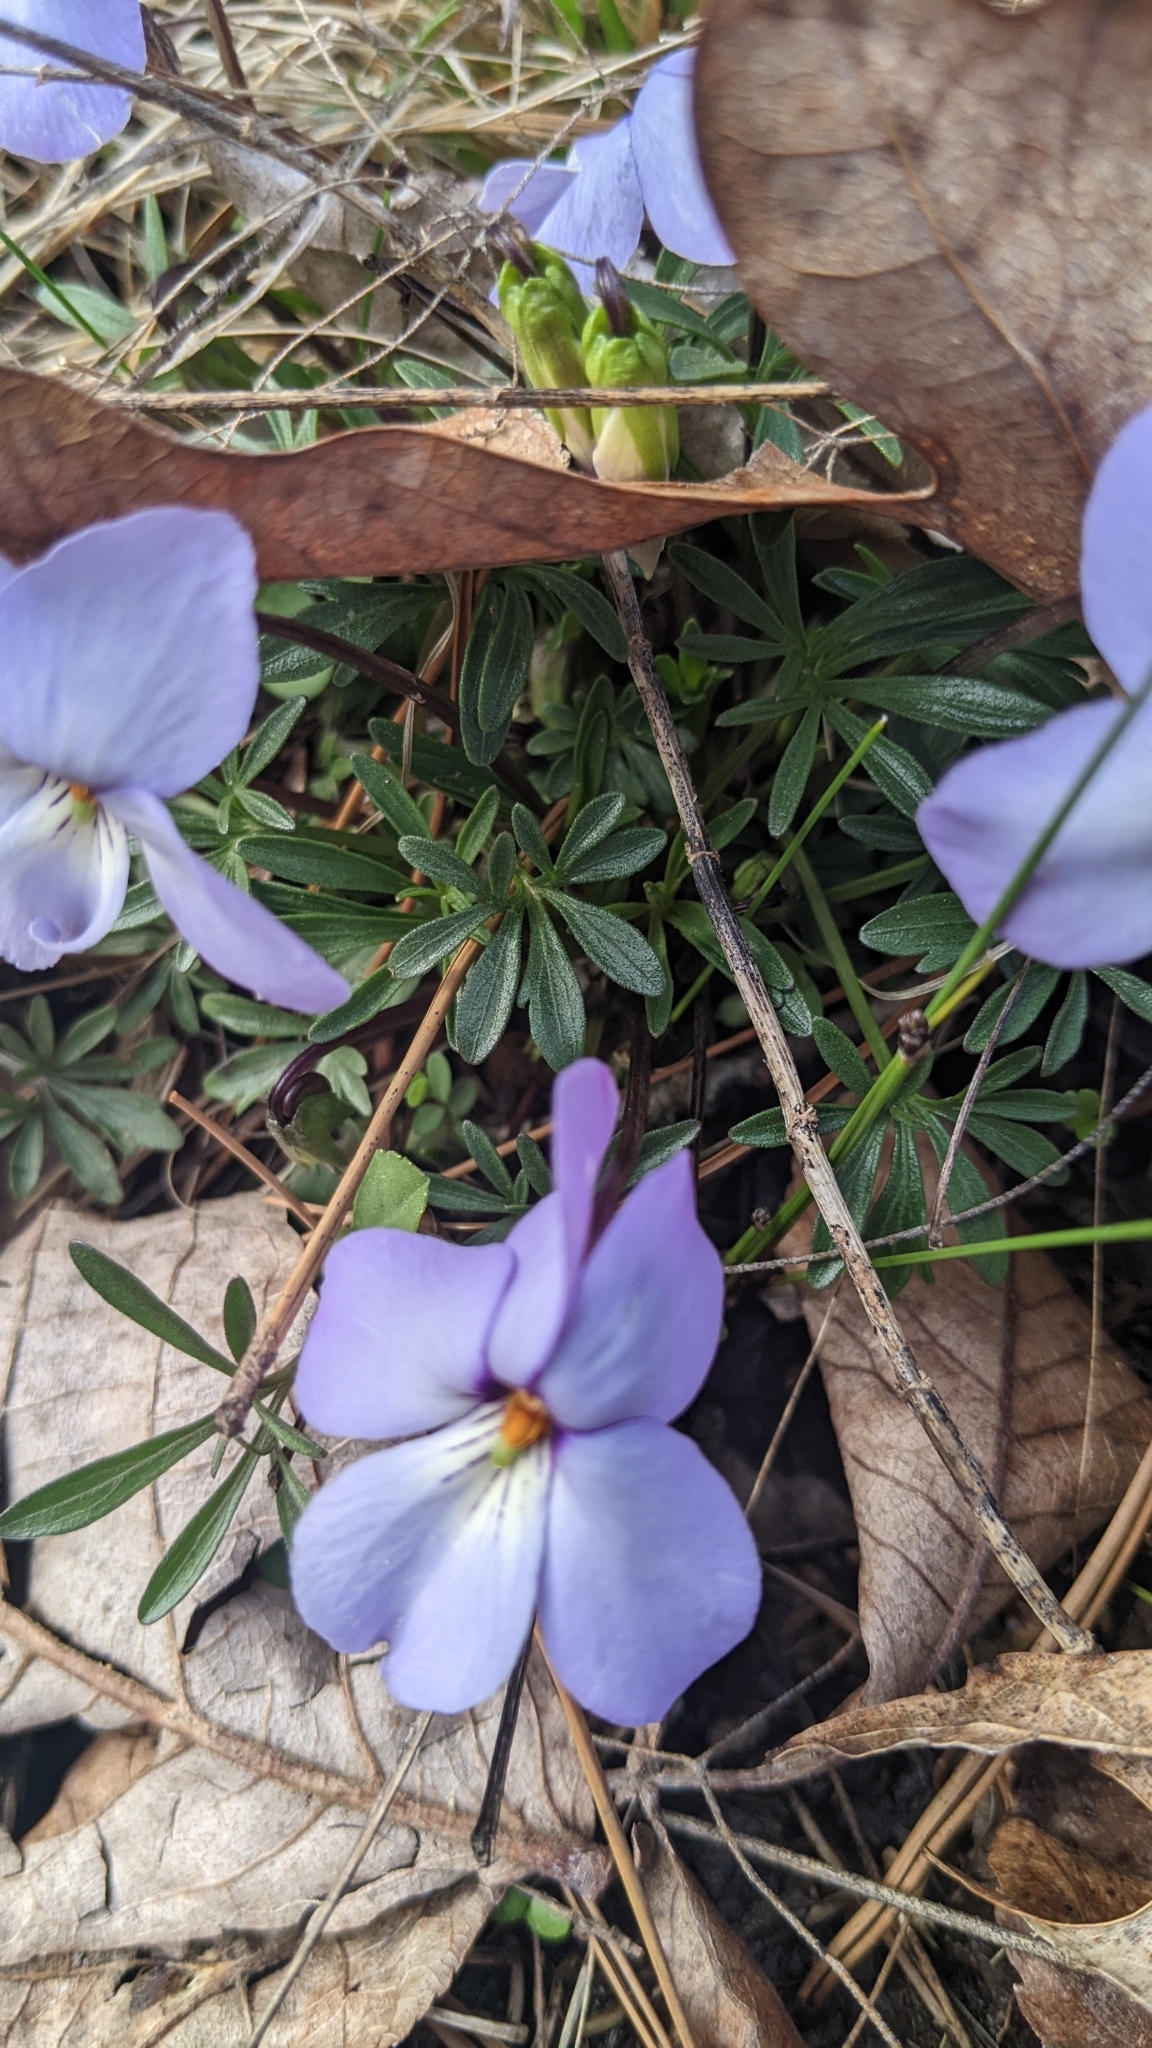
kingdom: Plantae
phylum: Tracheophyta
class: Magnoliopsida
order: Malpighiales
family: Violaceae
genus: Viola
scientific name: Viola pedata
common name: Pansy violet
